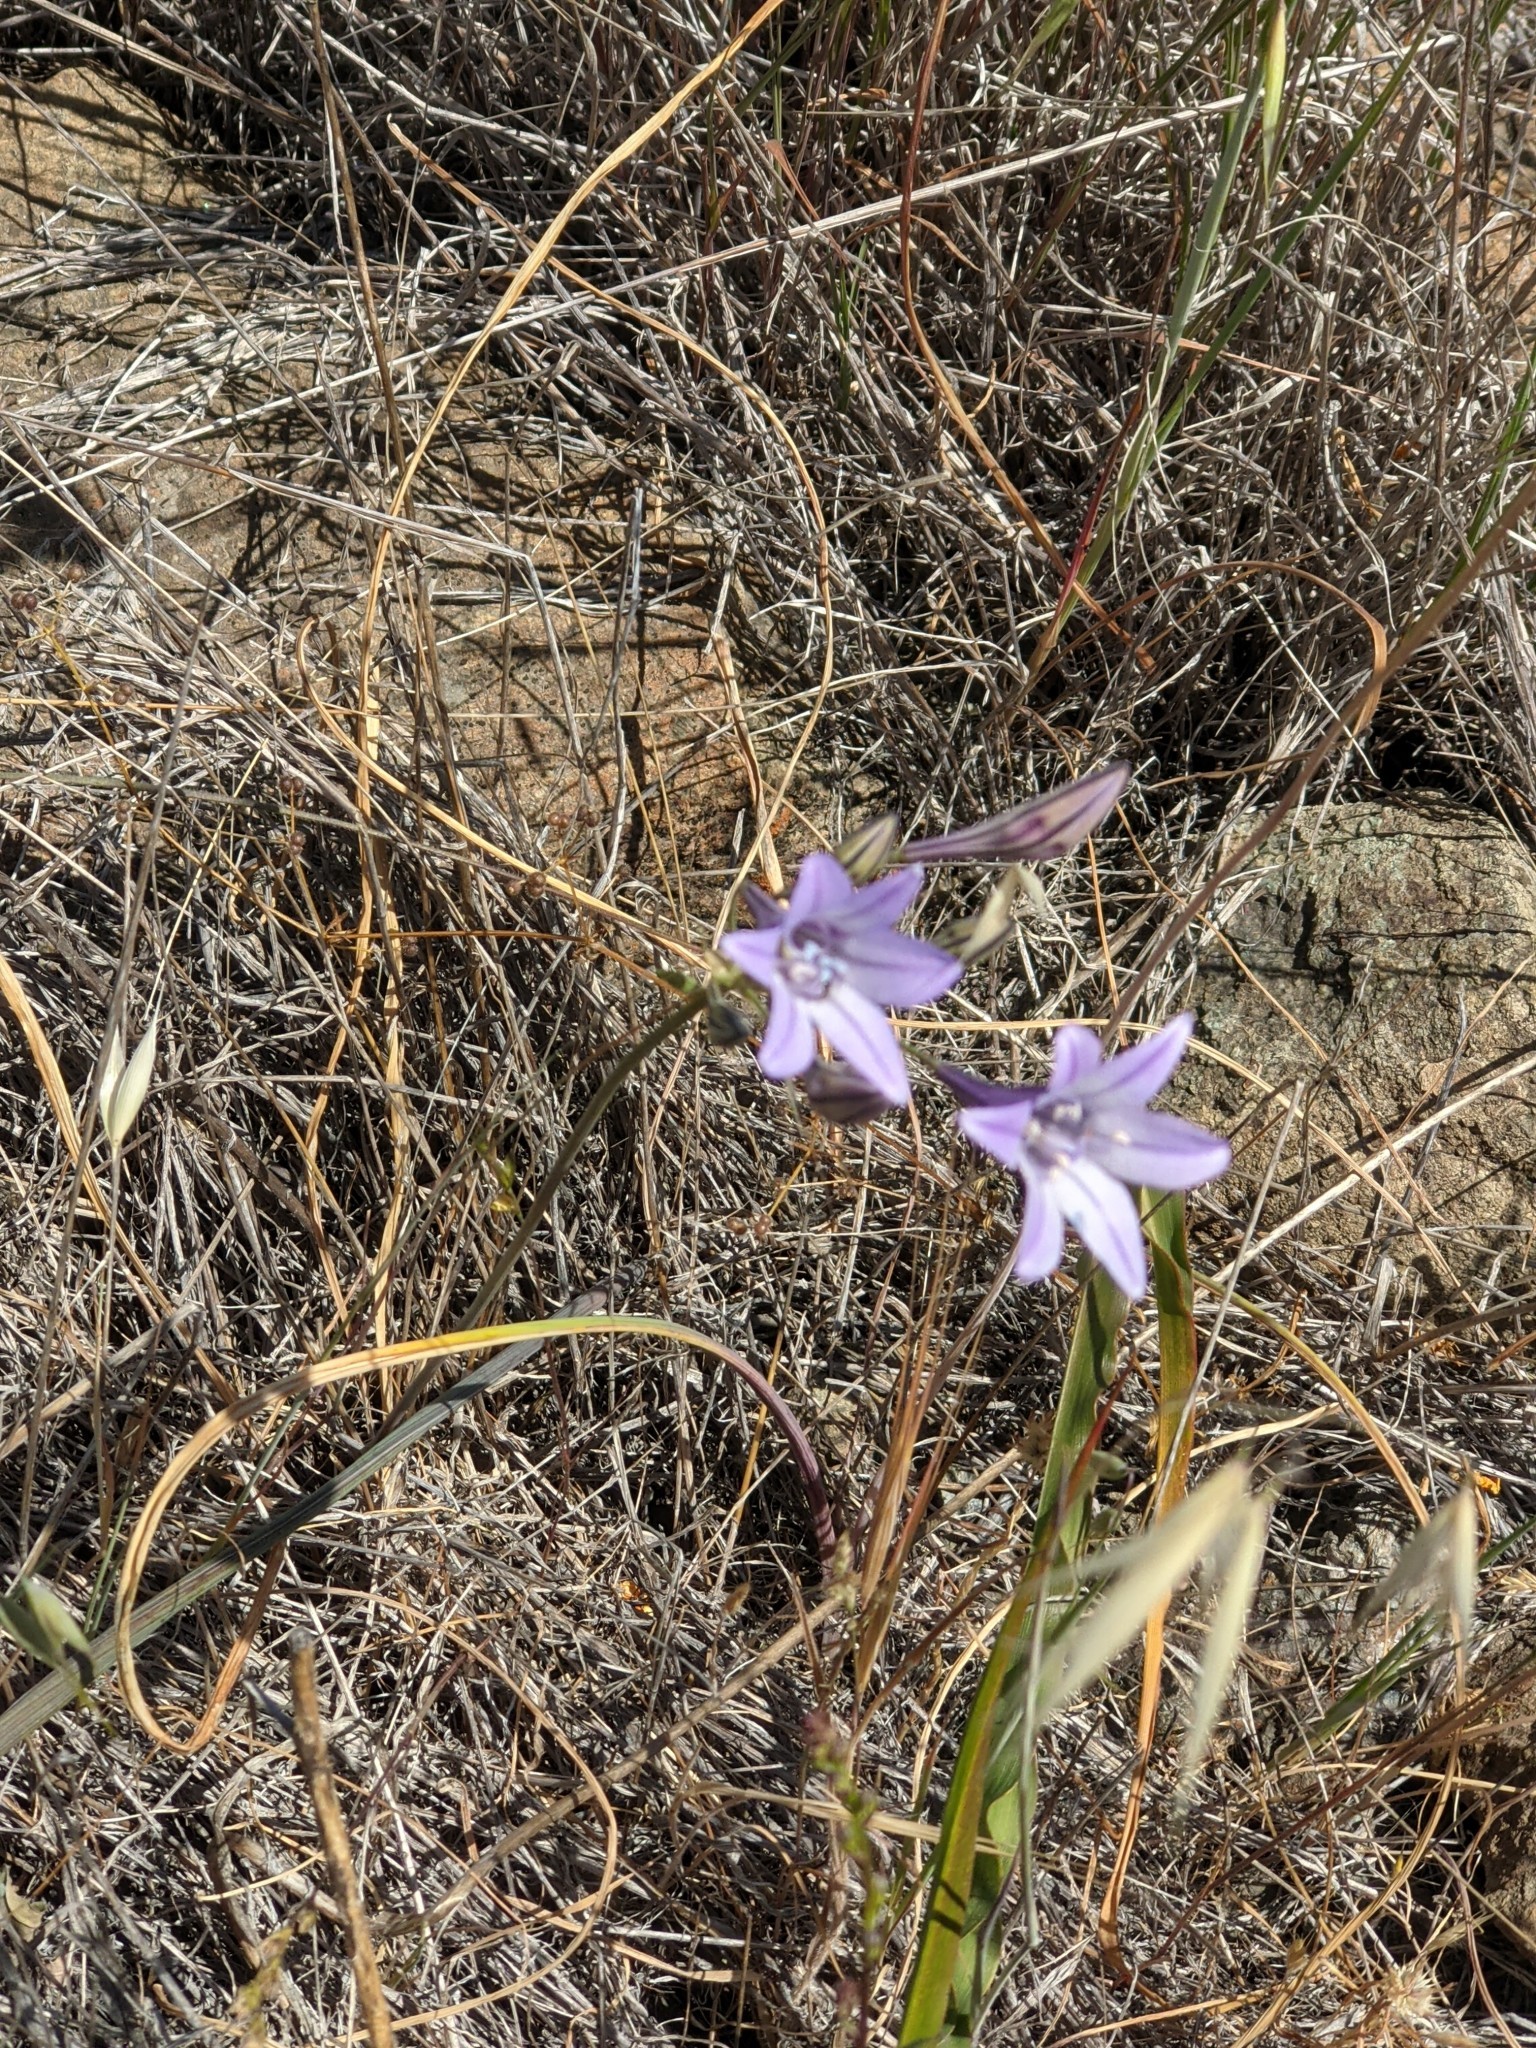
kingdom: Plantae
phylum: Tracheophyta
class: Liliopsida
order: Asparagales
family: Asparagaceae
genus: Triteleia
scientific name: Triteleia laxa
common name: Triplet-lily
